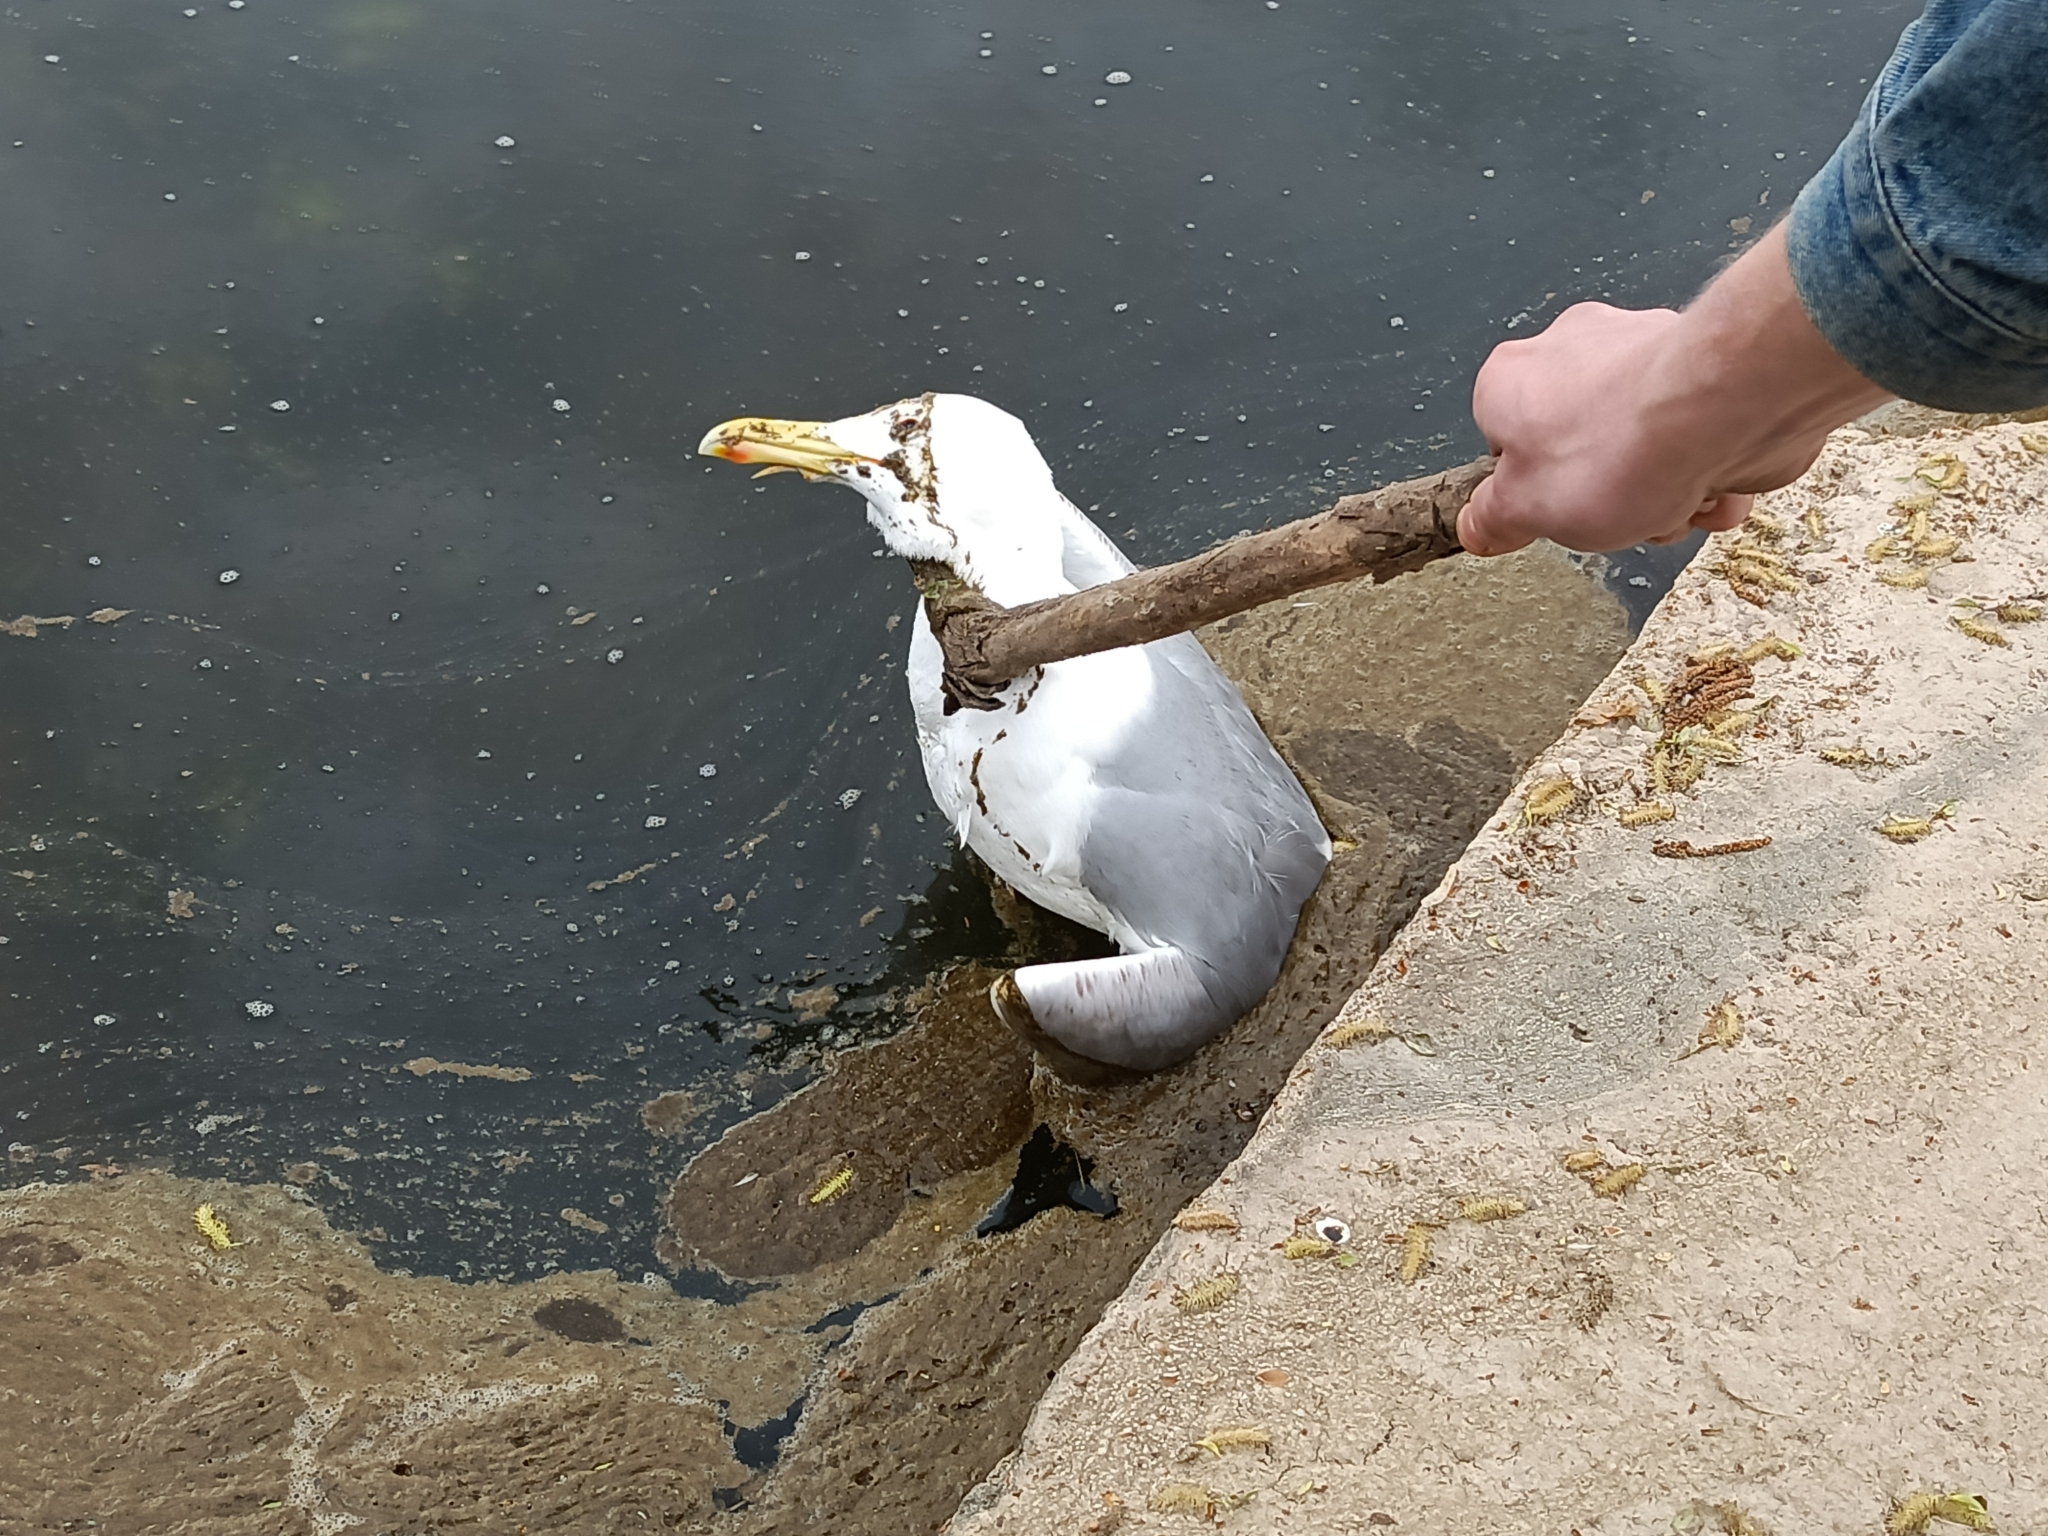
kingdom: Animalia
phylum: Chordata
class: Aves
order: Charadriiformes
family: Laridae
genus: Larus
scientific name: Larus argentatus
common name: Herring gull
